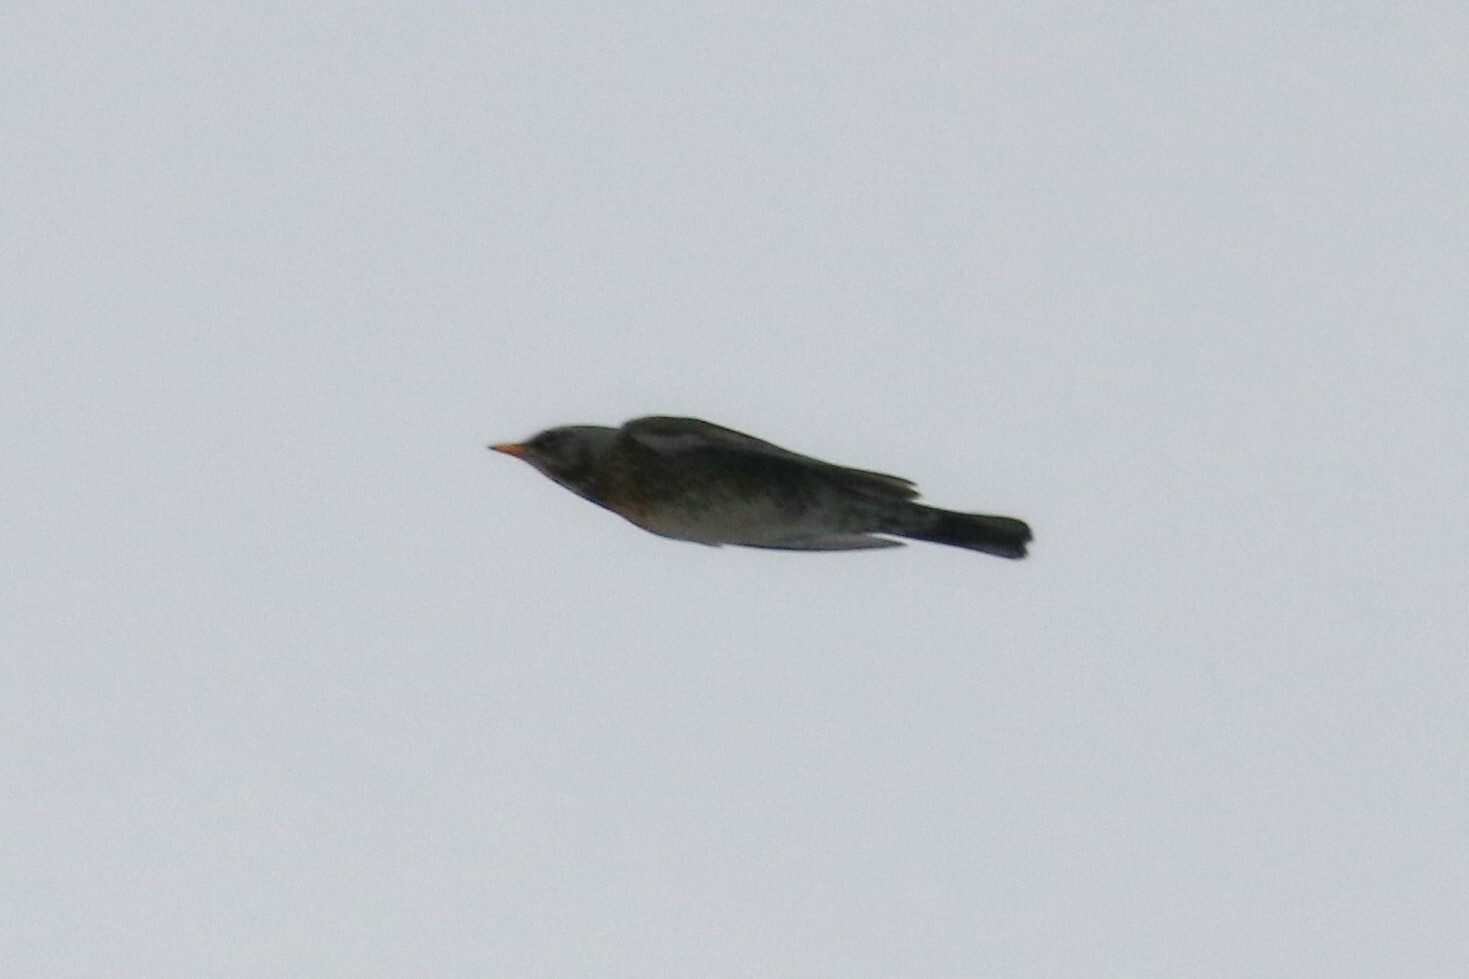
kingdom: Animalia
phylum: Chordata
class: Aves
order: Passeriformes
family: Turdidae
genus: Turdus
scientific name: Turdus pilaris
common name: Fieldfare
